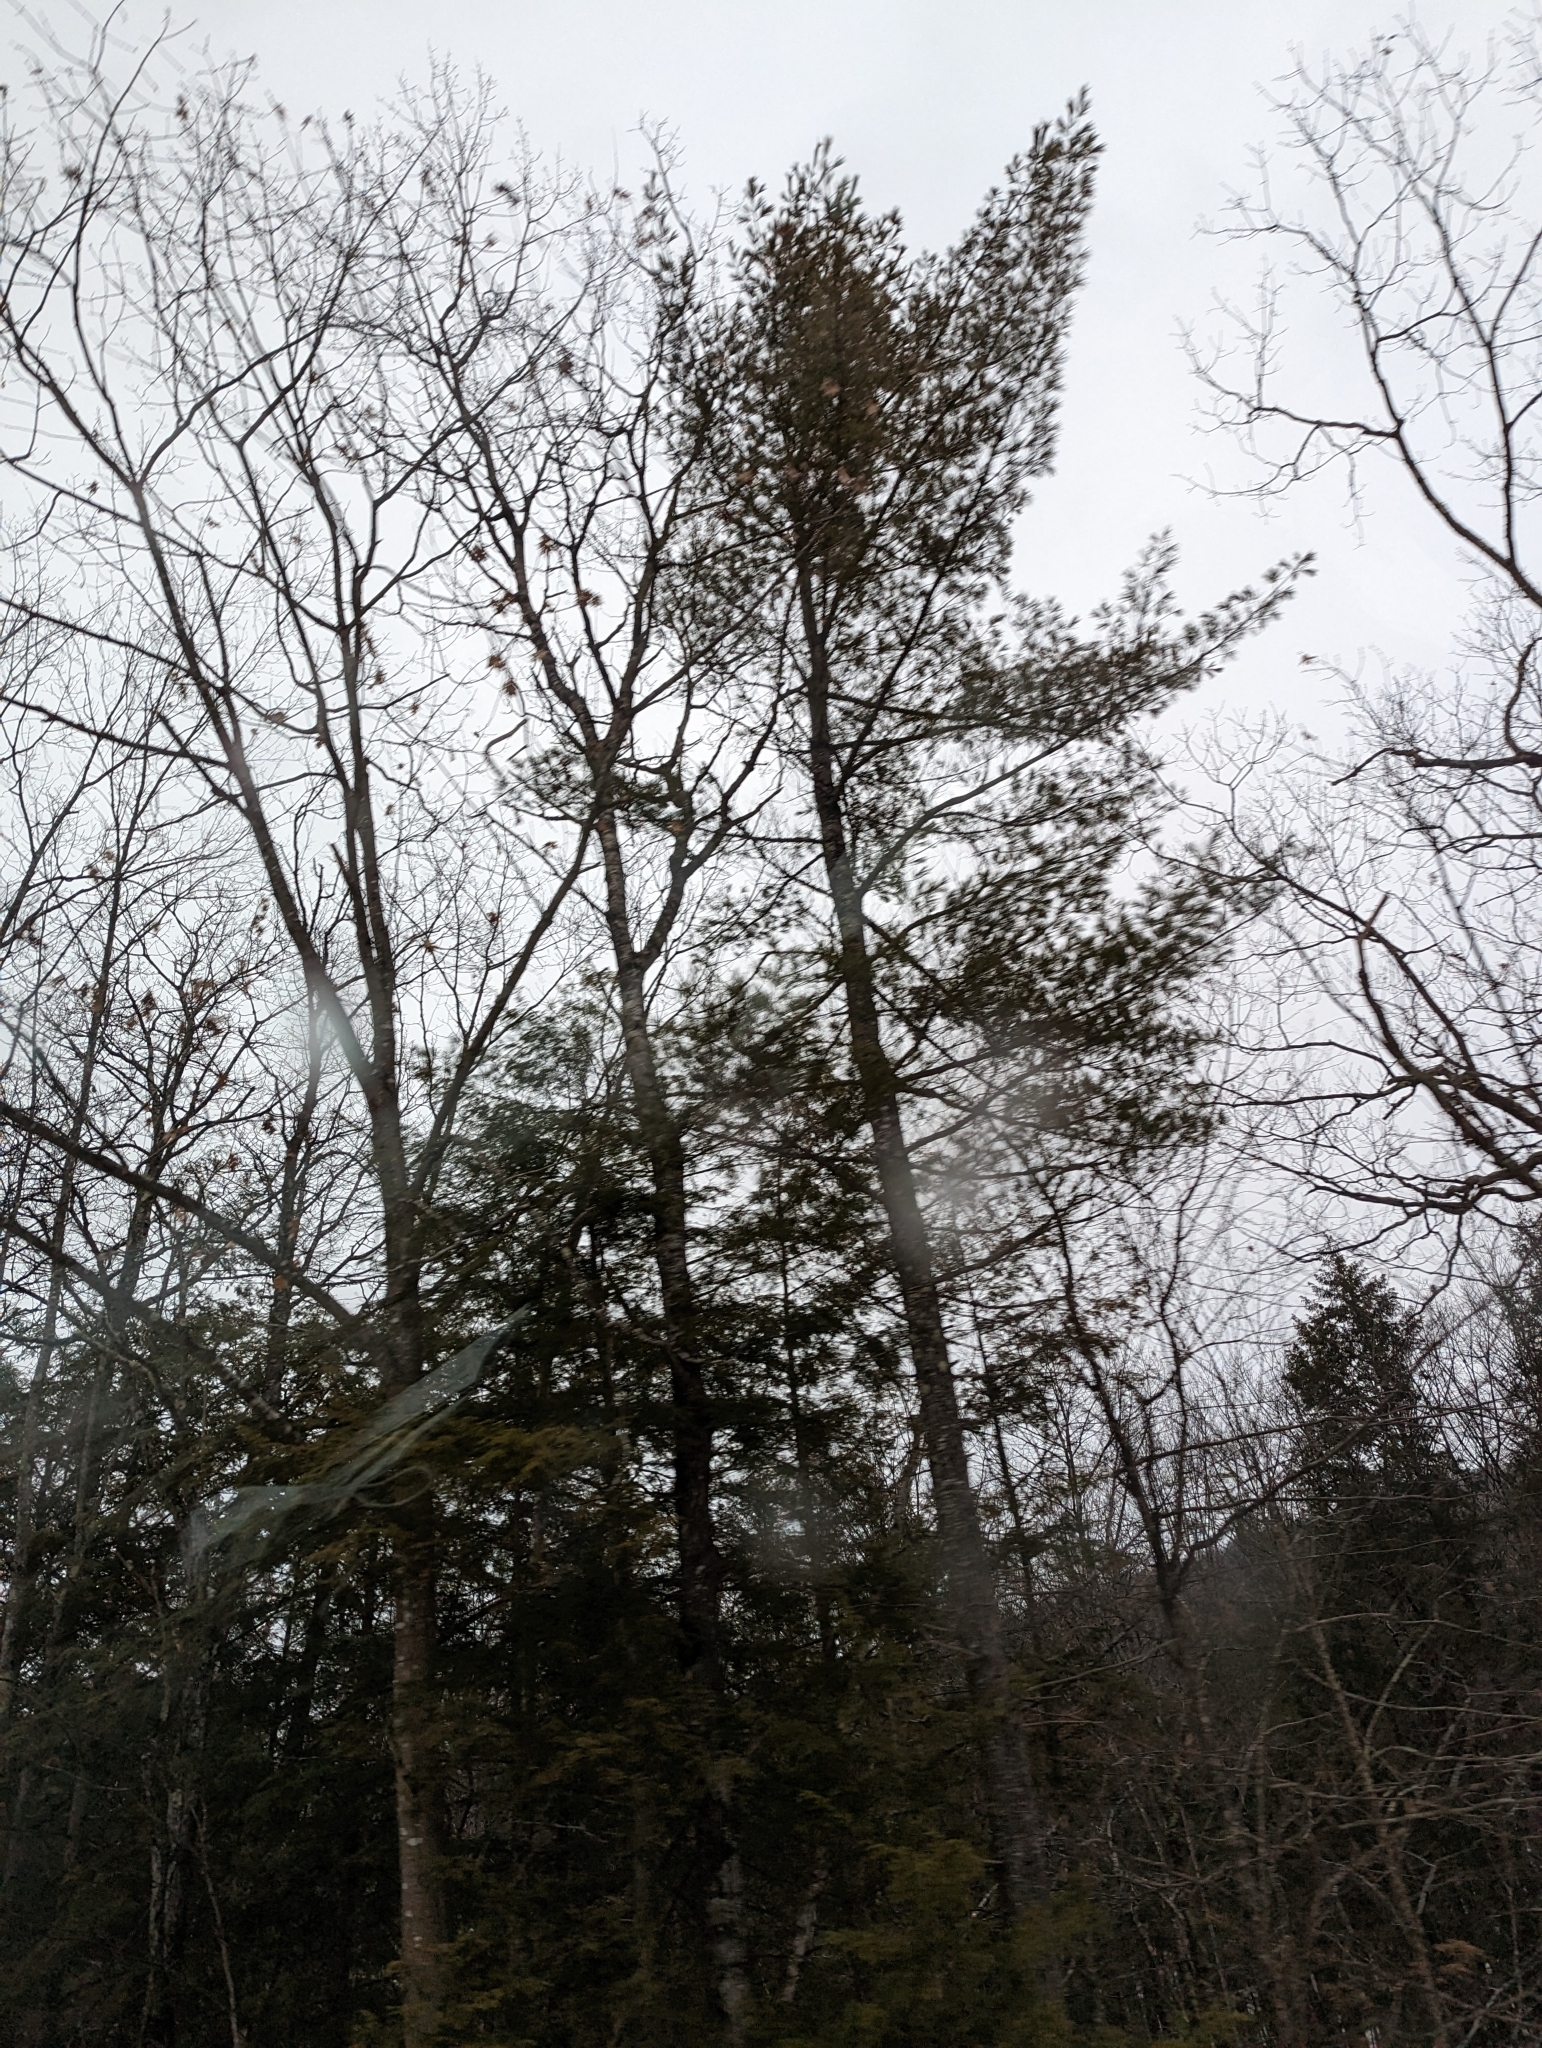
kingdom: Plantae
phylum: Tracheophyta
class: Pinopsida
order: Pinales
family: Pinaceae
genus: Pinus
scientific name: Pinus strobus
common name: Weymouth pine
